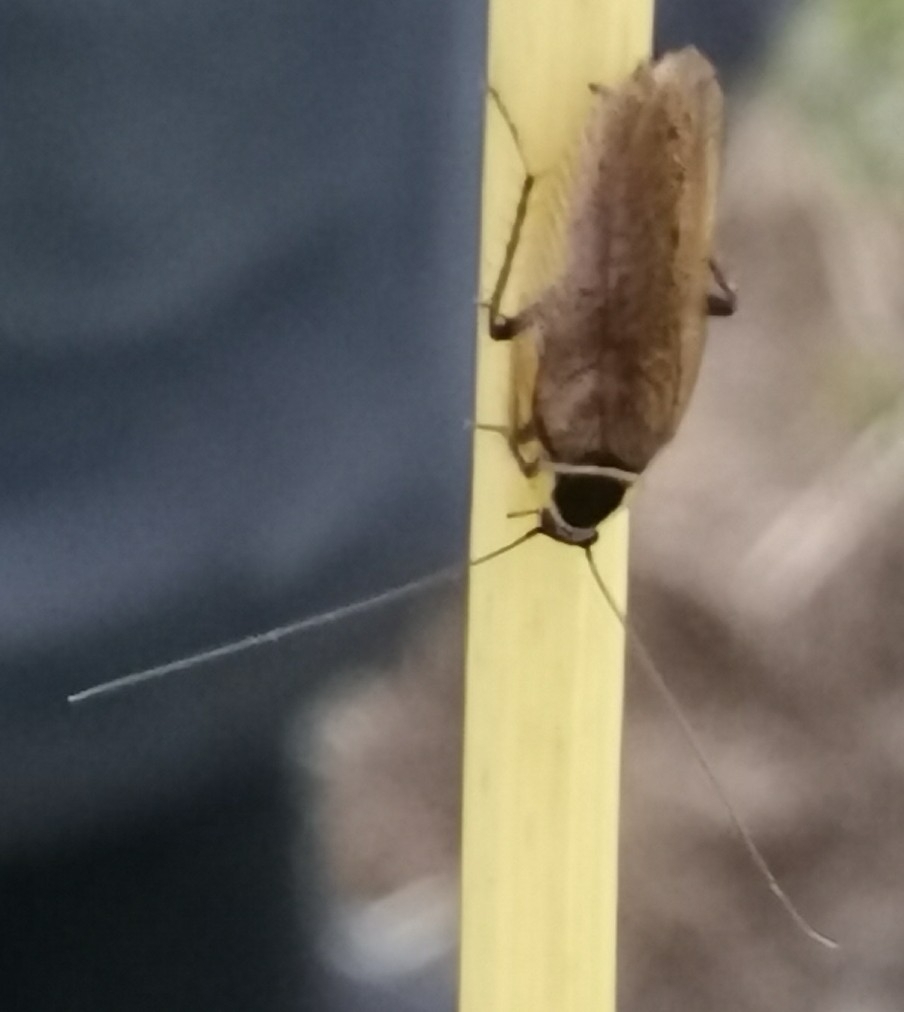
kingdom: Animalia
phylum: Arthropoda
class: Insecta
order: Blattodea
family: Ectobiidae
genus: Ectobius
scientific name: Ectobius sylvestris
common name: Forest cockroach
